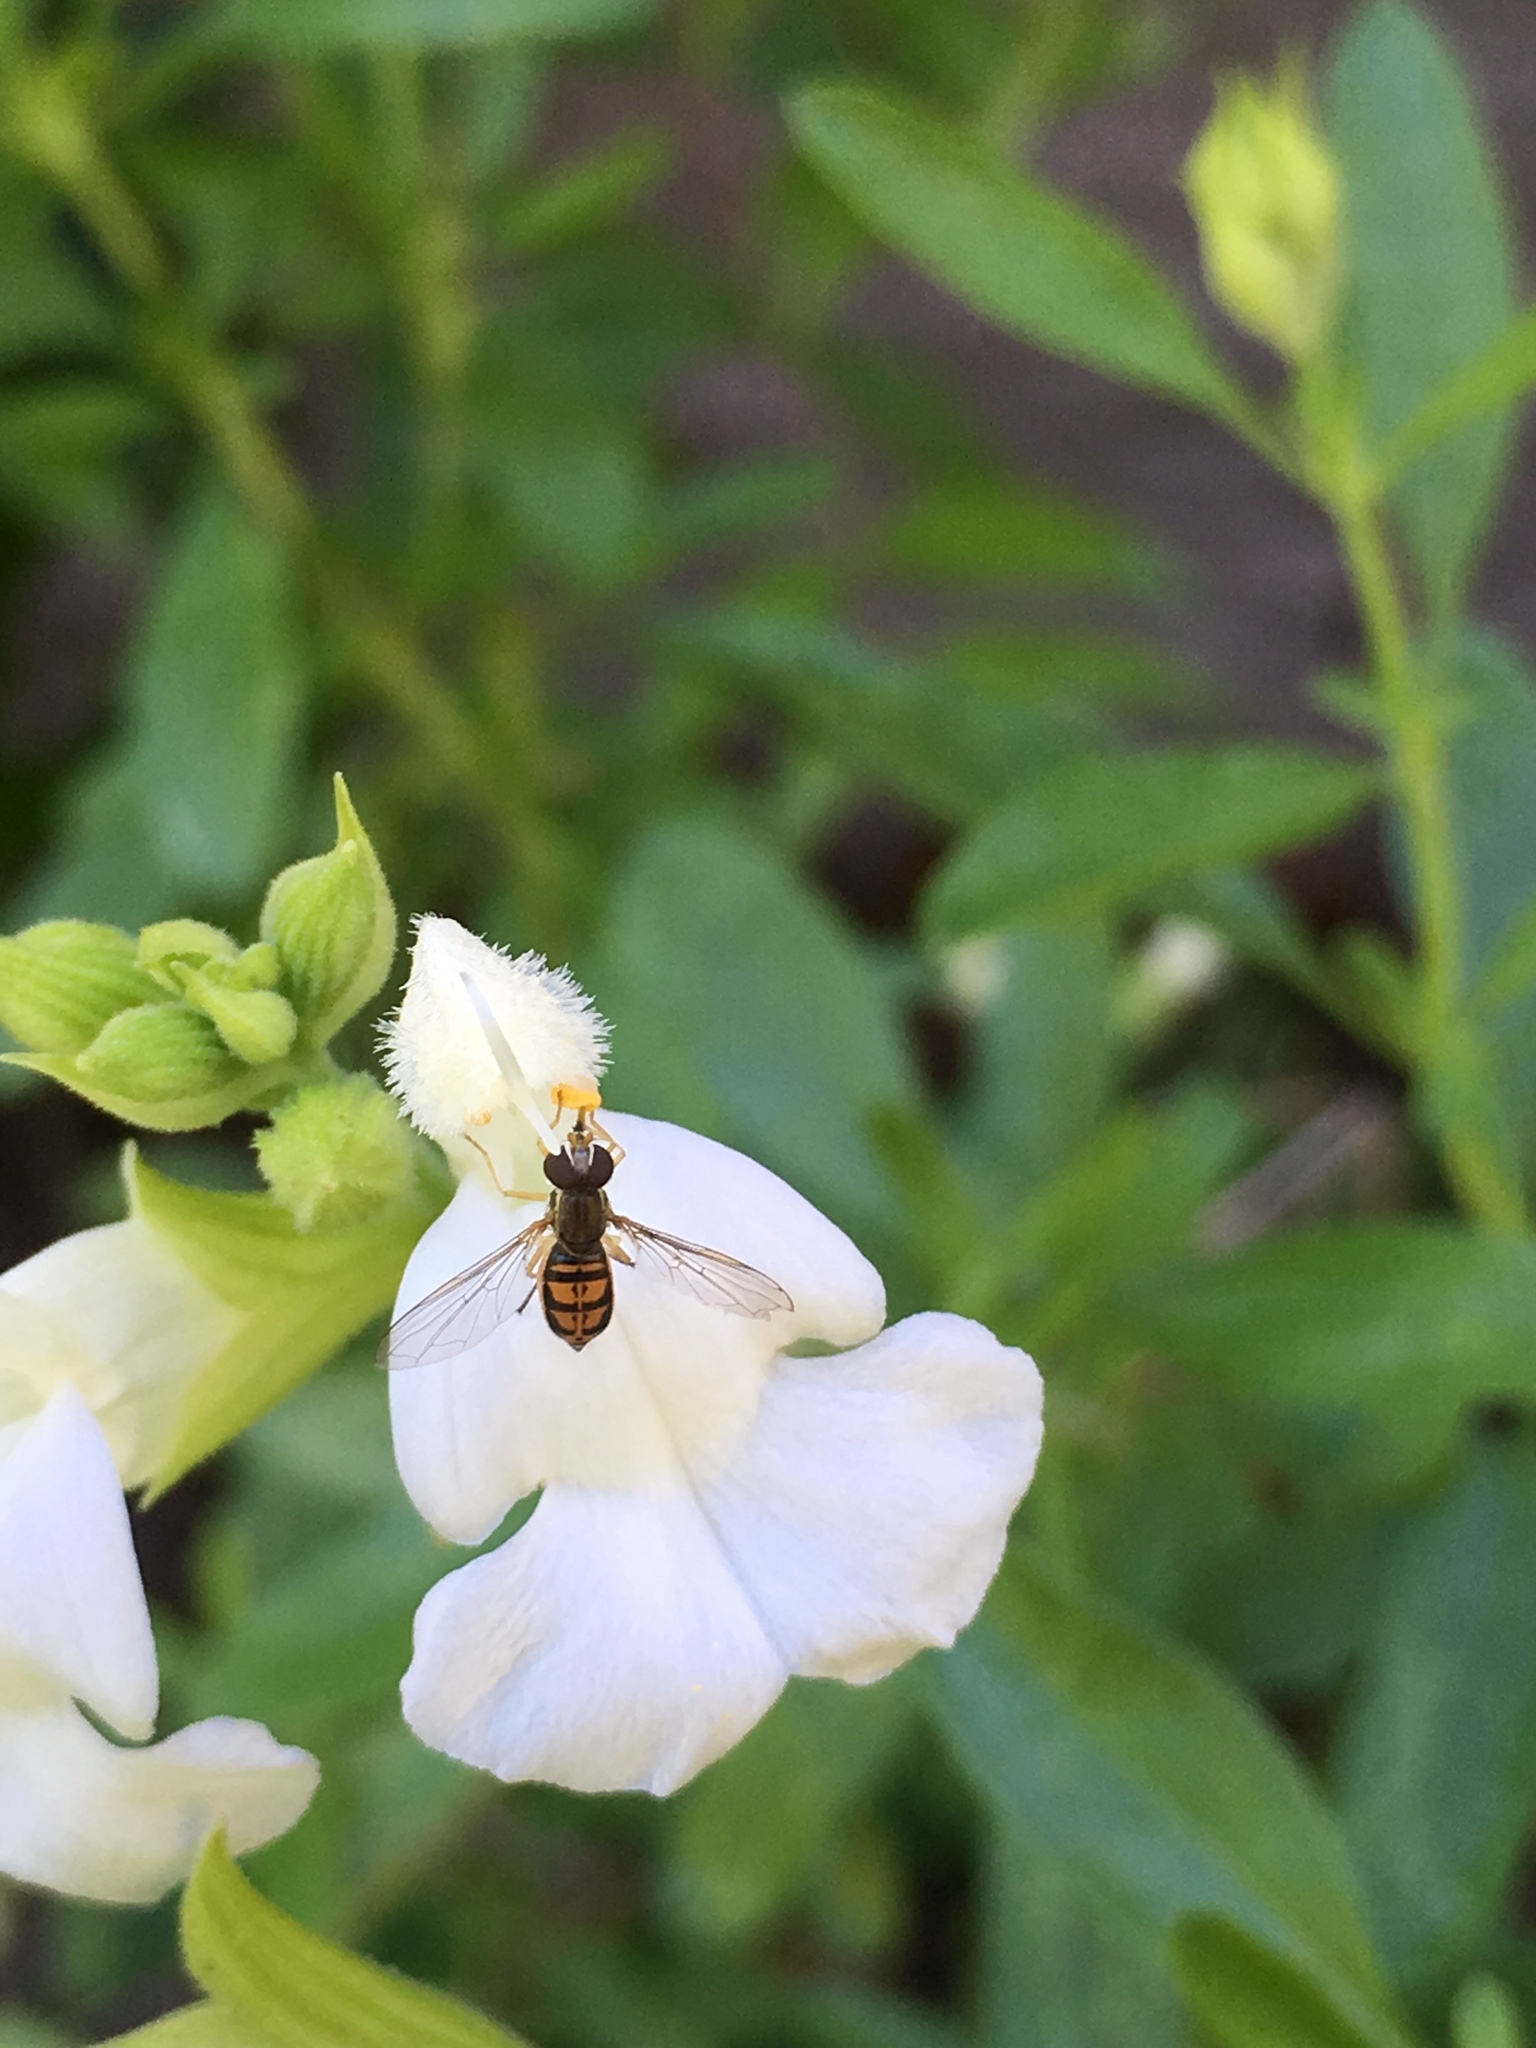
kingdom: Animalia
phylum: Arthropoda
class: Insecta
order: Diptera
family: Syrphidae
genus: Toxomerus
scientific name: Toxomerus marginatus
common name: Syrphid fly
